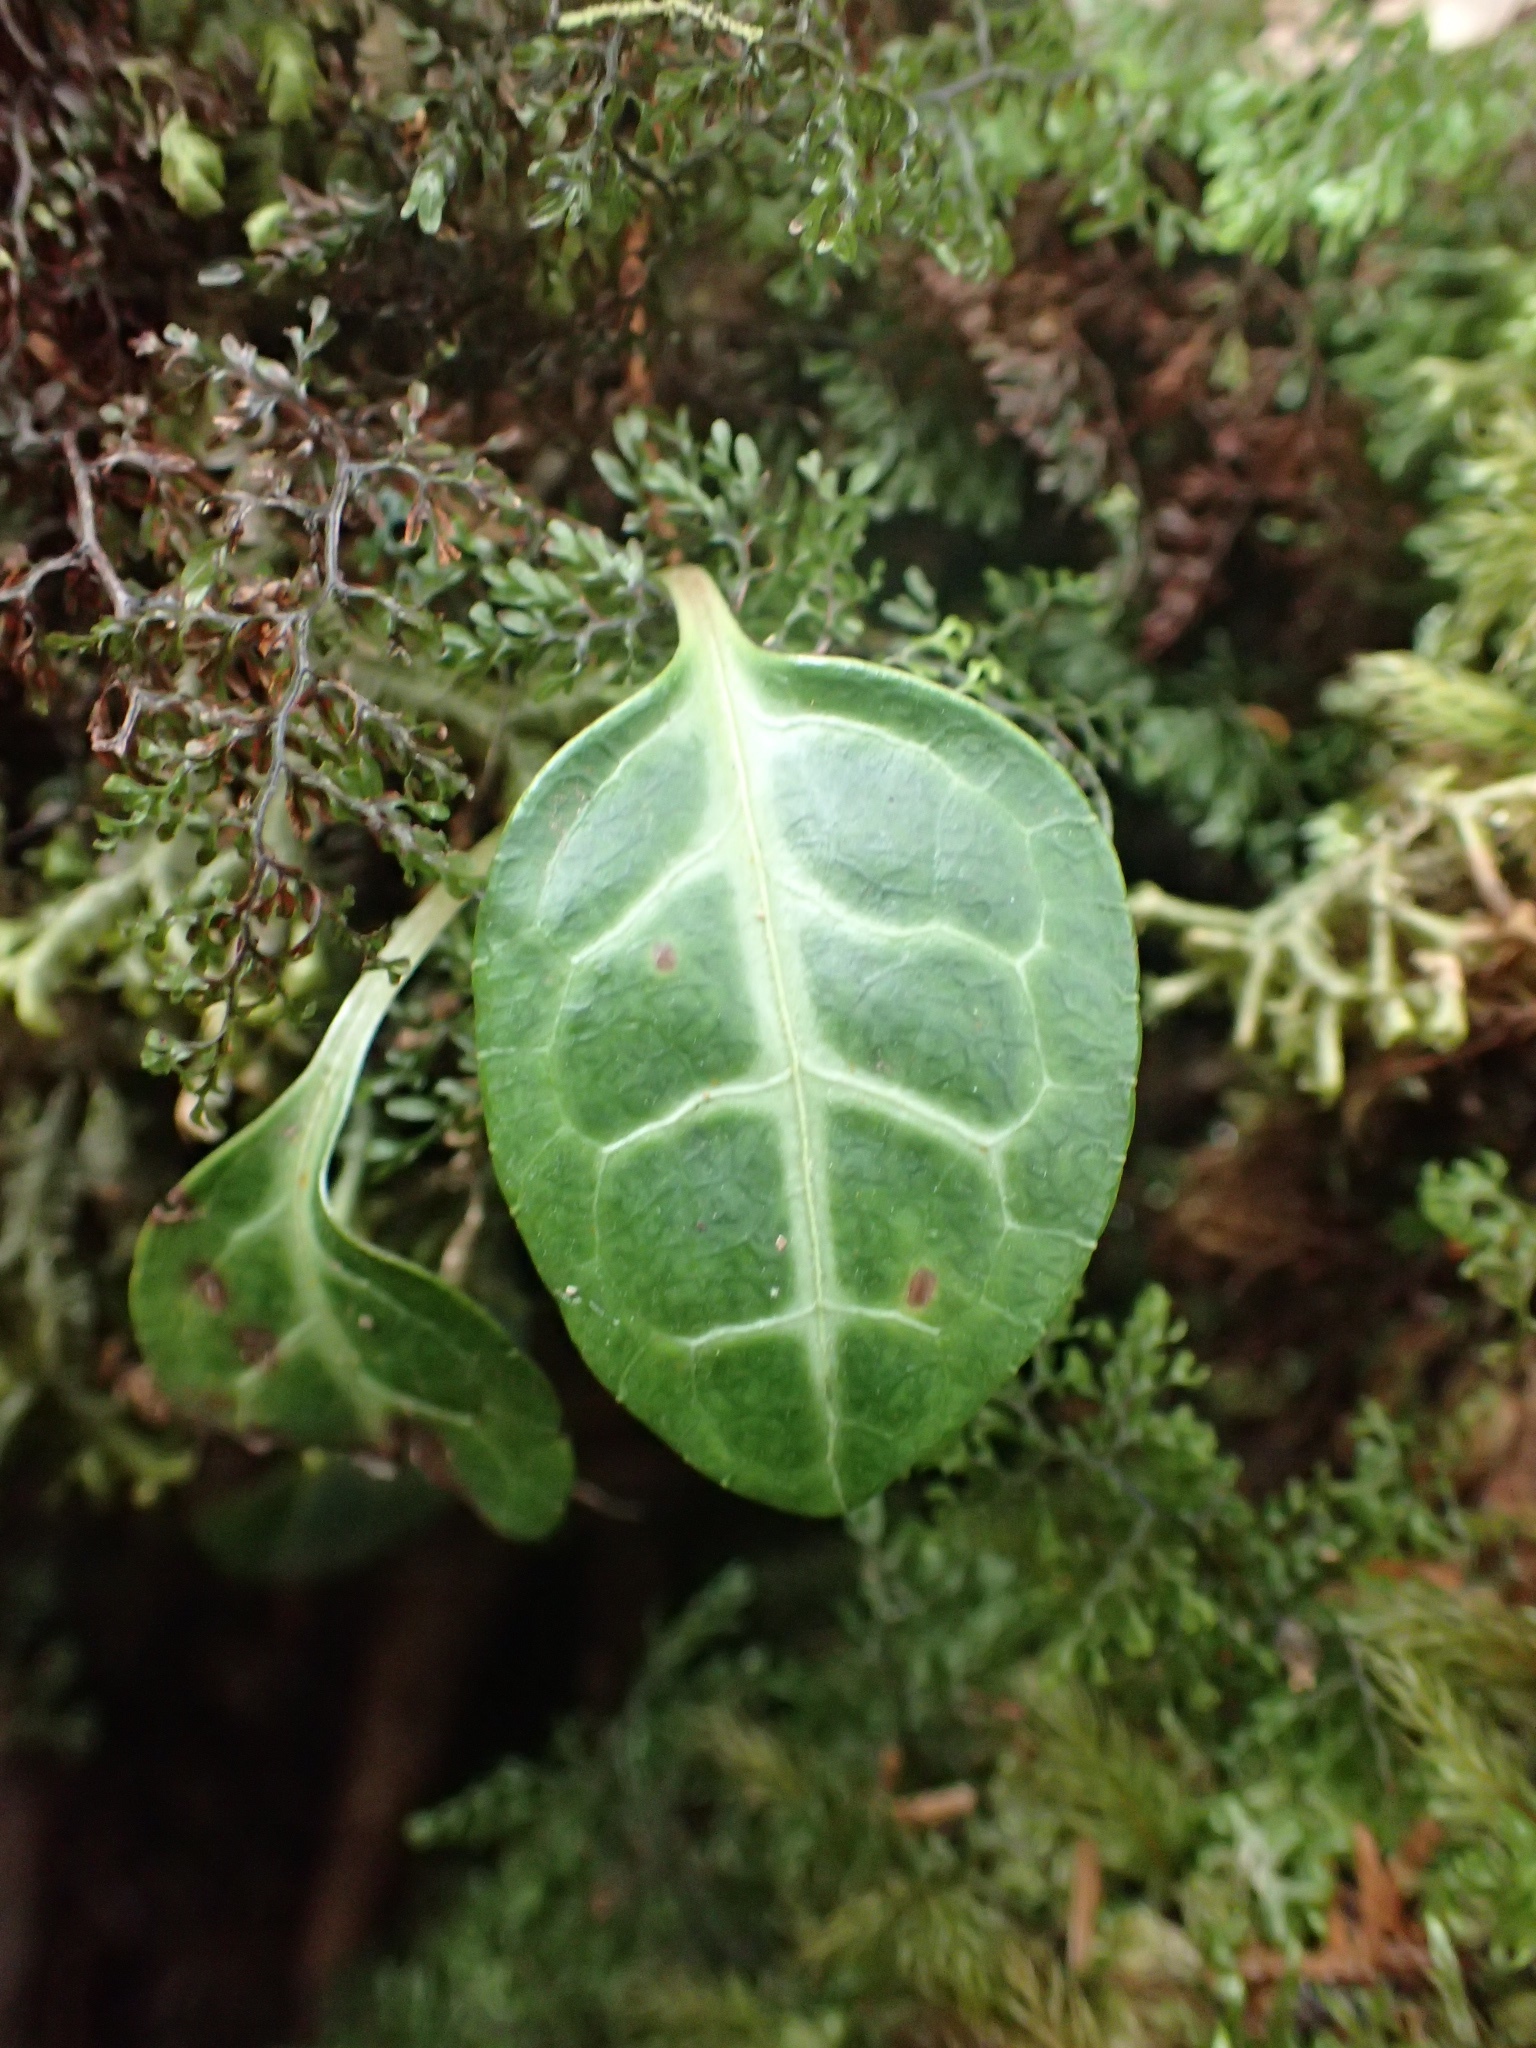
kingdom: Plantae
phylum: Tracheophyta
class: Magnoliopsida
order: Ericales
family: Ericaceae
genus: Pyrola
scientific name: Pyrola alboreticulata
